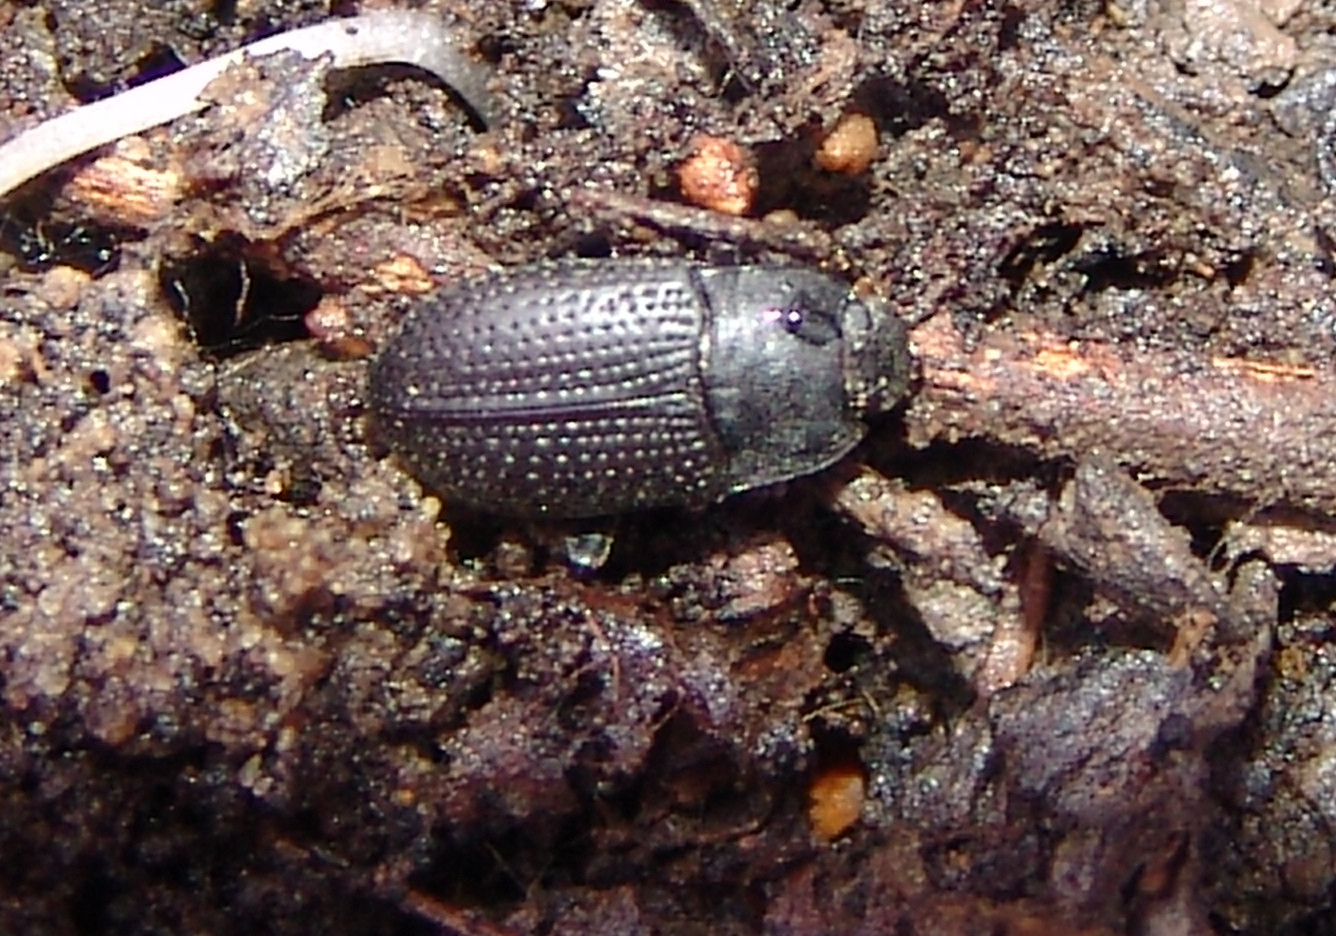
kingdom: Animalia
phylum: Arthropoda
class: Insecta
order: Coleoptera
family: Tenebrionidae
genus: Asiopus
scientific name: Asiopus
